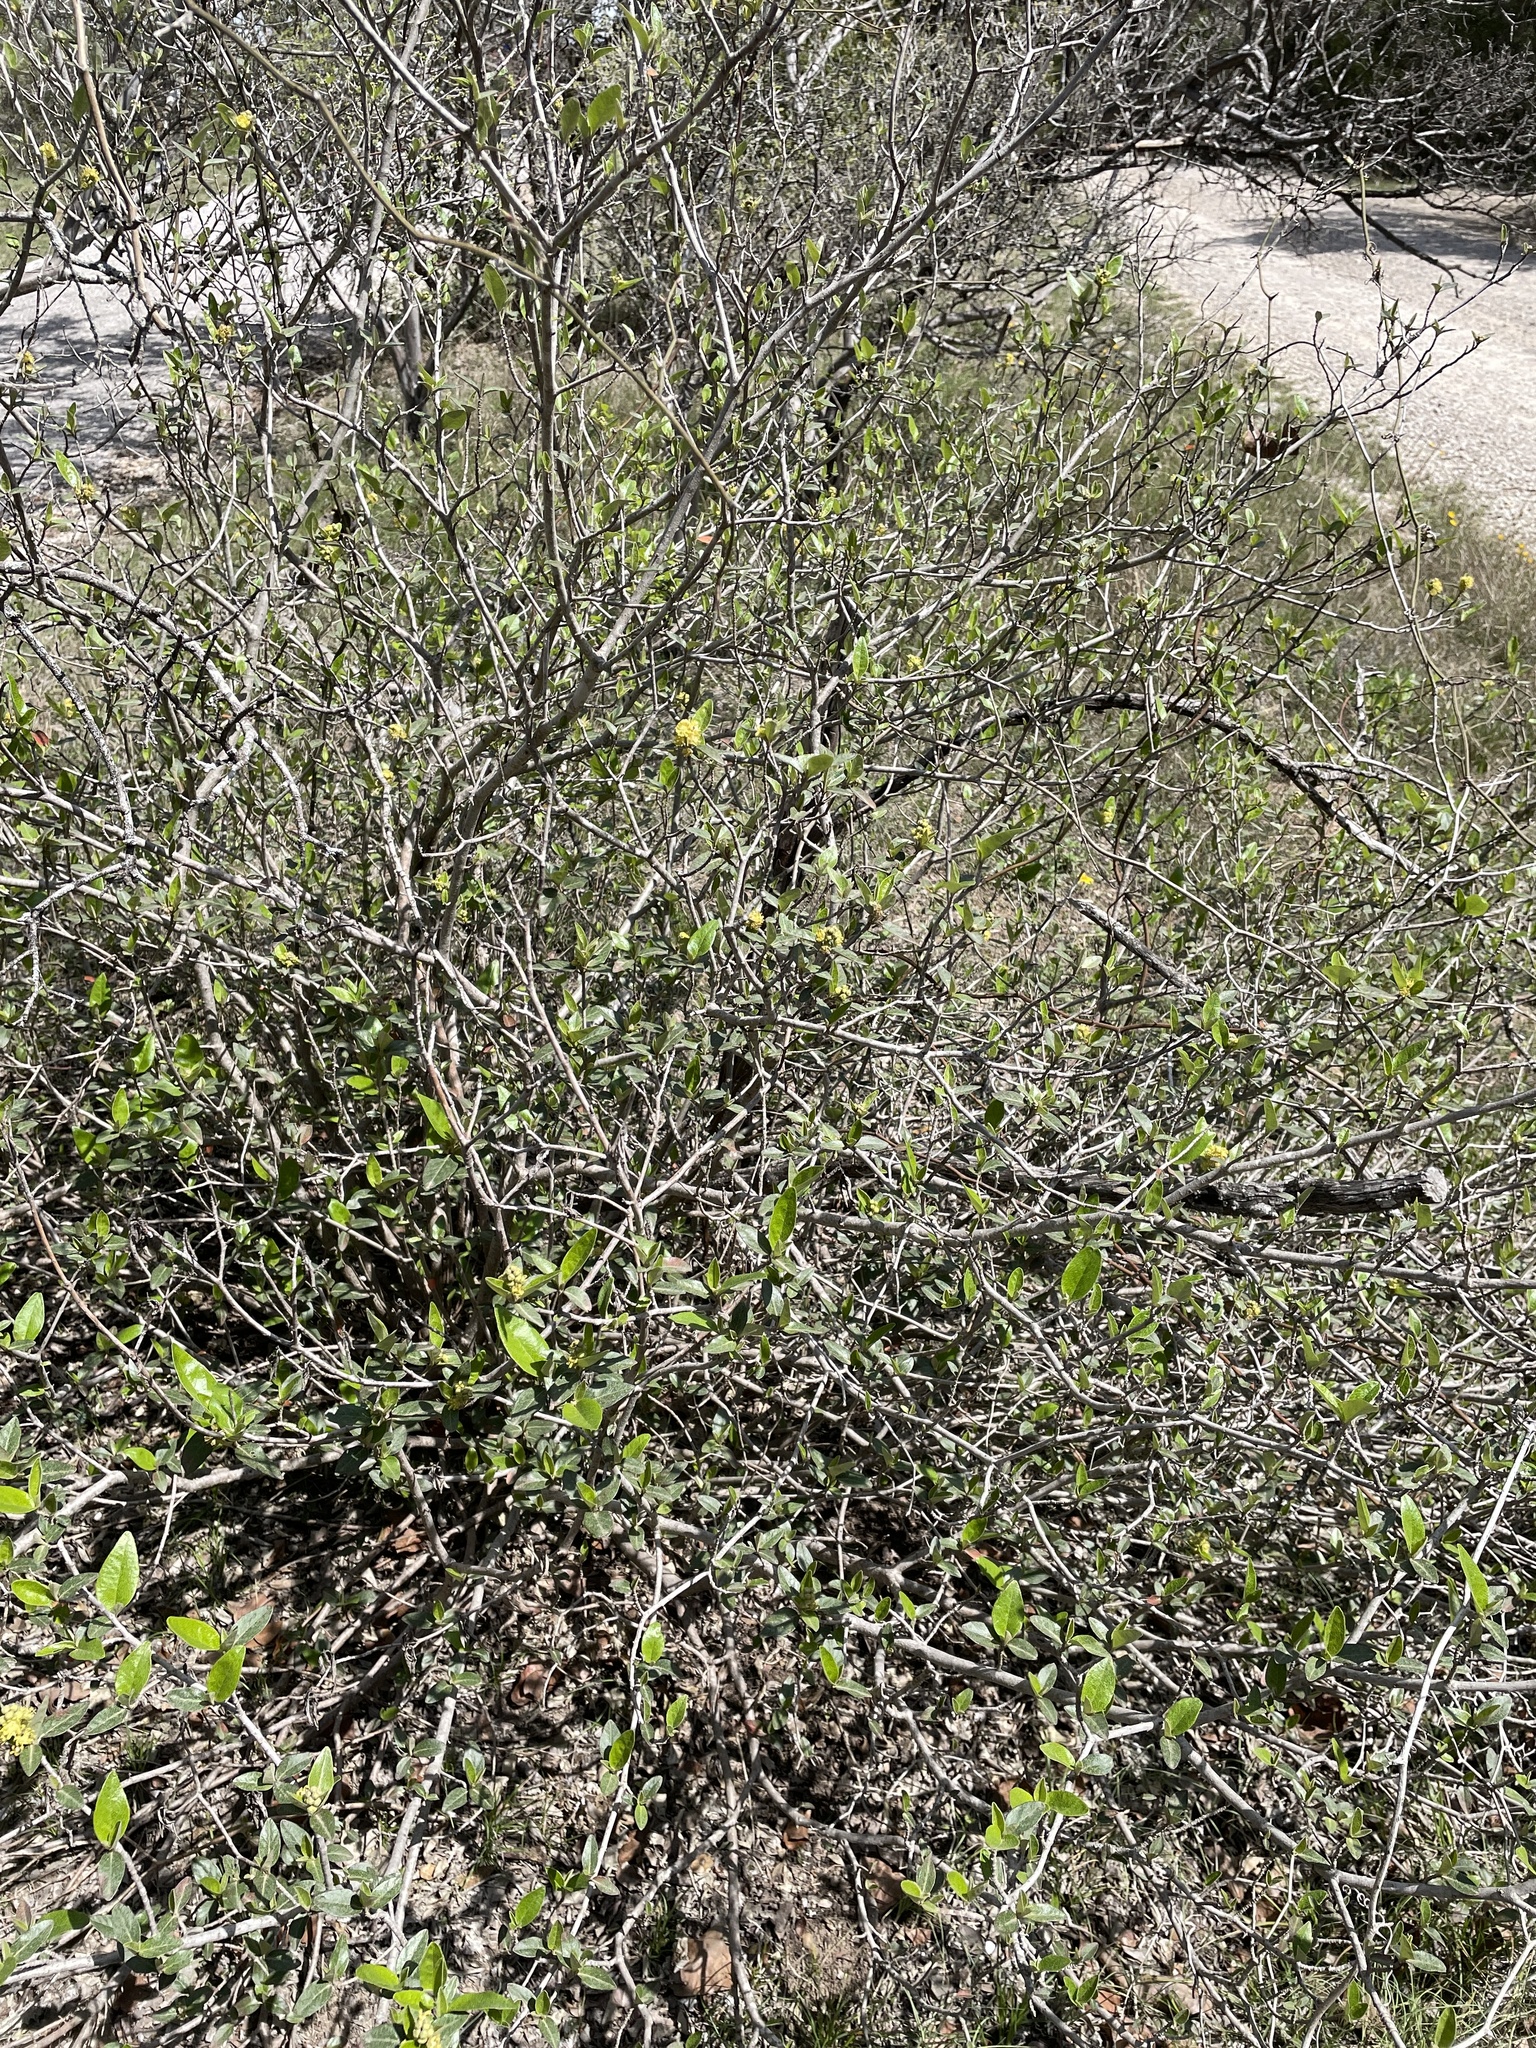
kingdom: Plantae
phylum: Tracheophyta
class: Magnoliopsida
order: Malpighiales
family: Euphorbiaceae
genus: Croton
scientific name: Croton alabamensis
